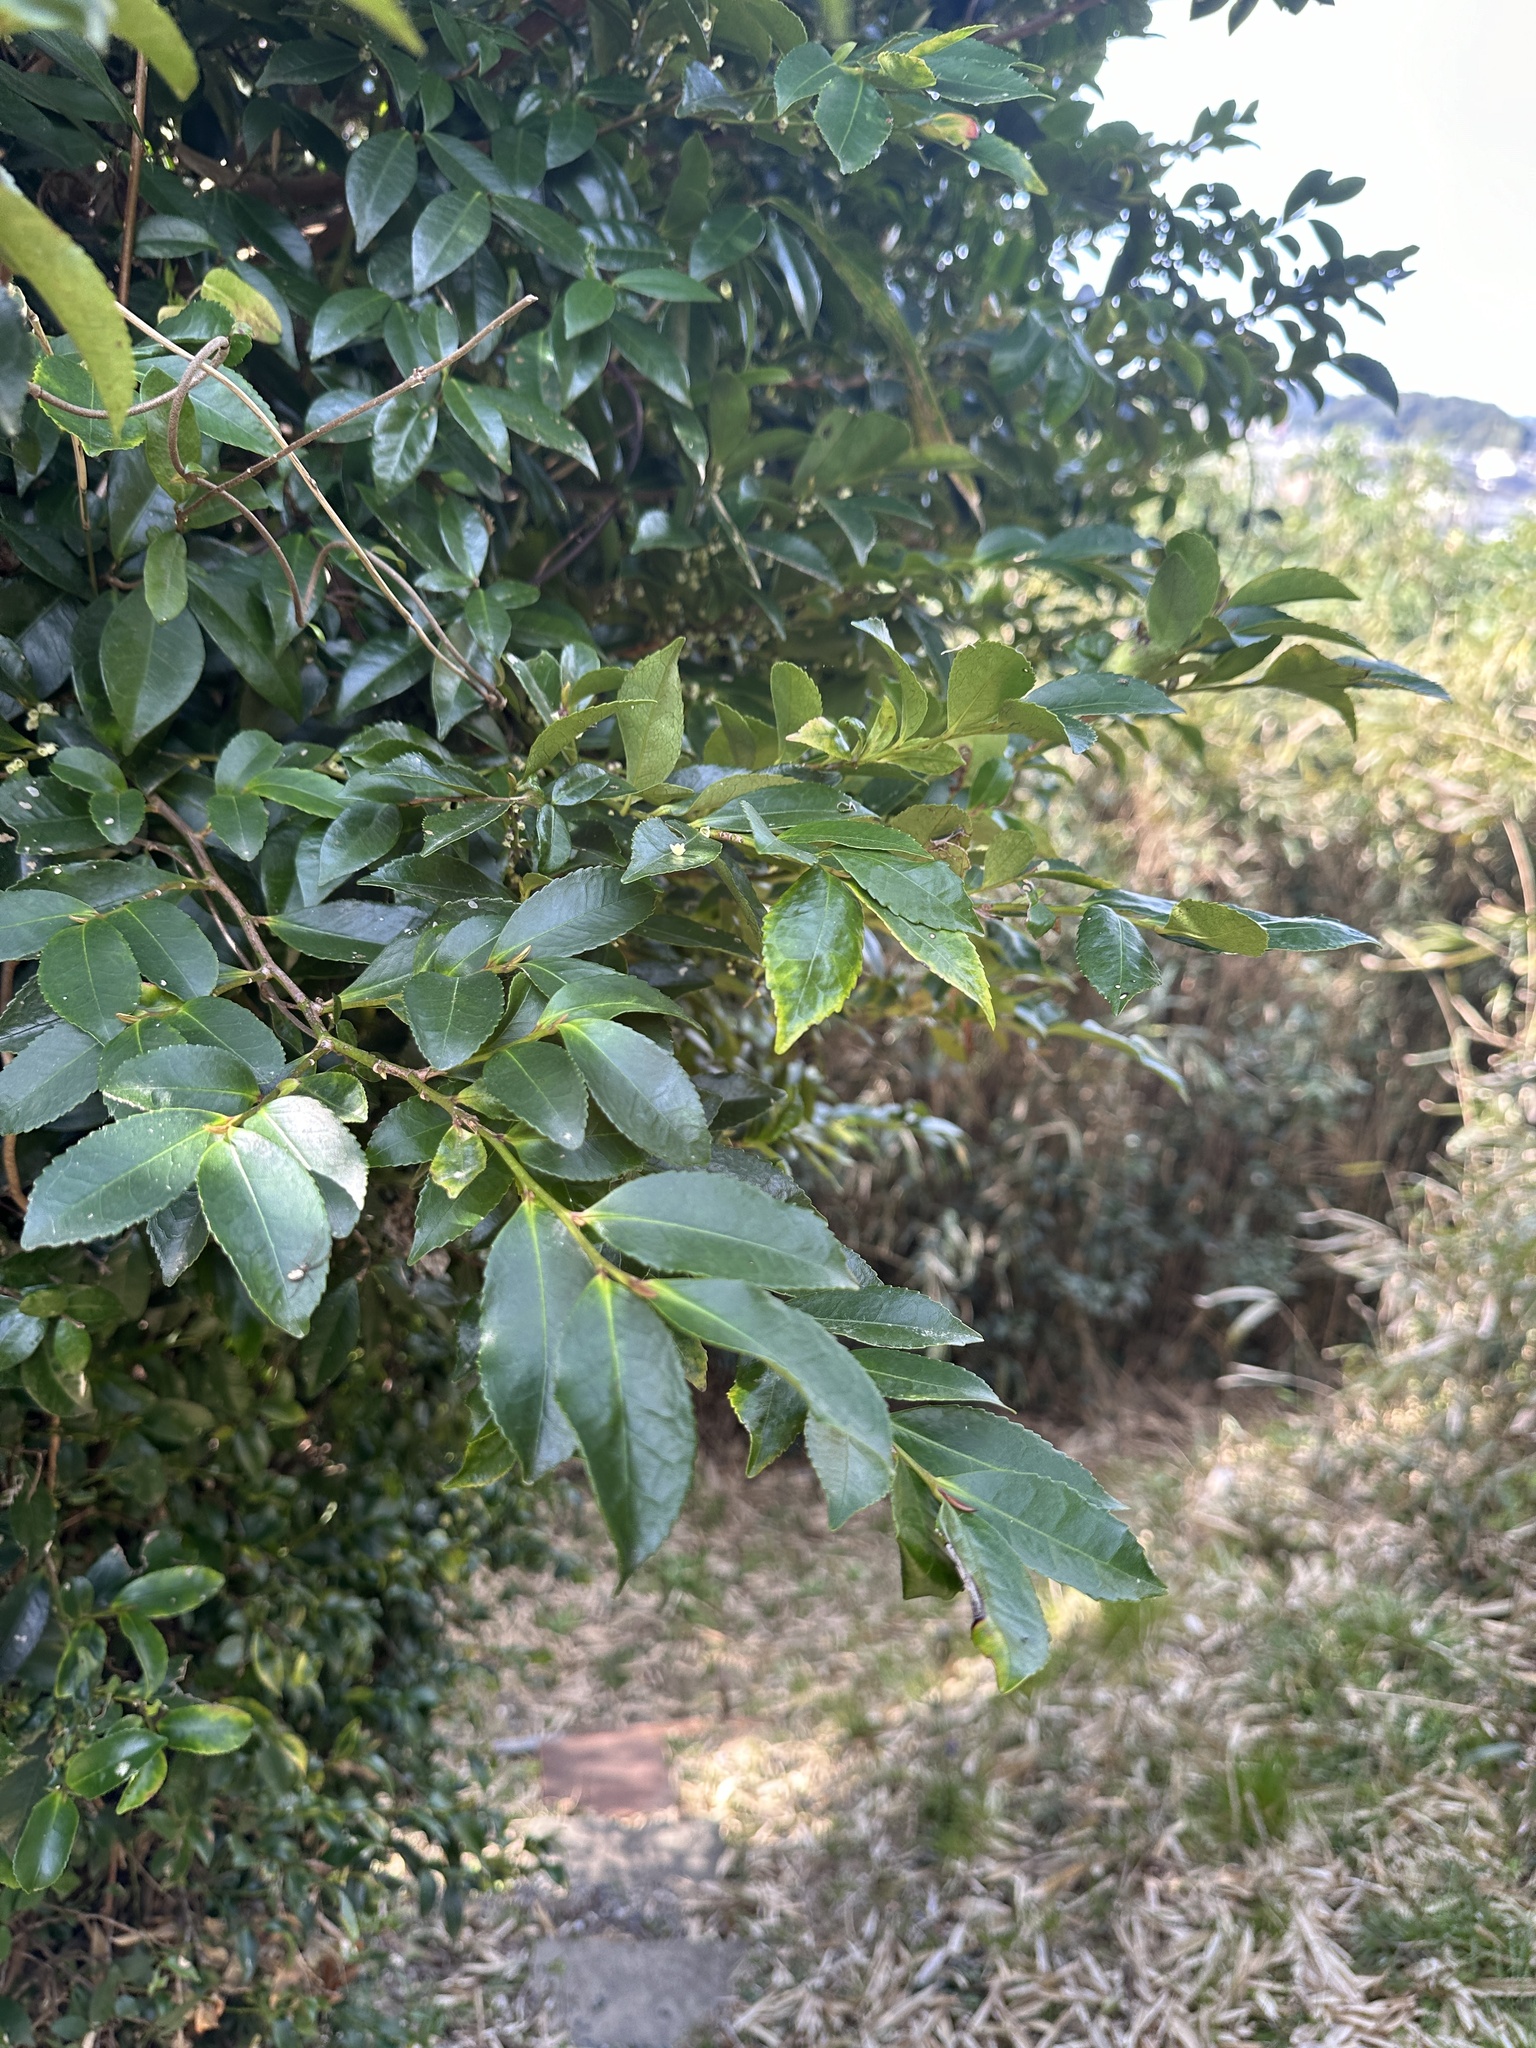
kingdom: Plantae
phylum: Tracheophyta
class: Magnoliopsida
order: Ericales
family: Pentaphylacaceae
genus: Eurya
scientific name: Eurya japonica
